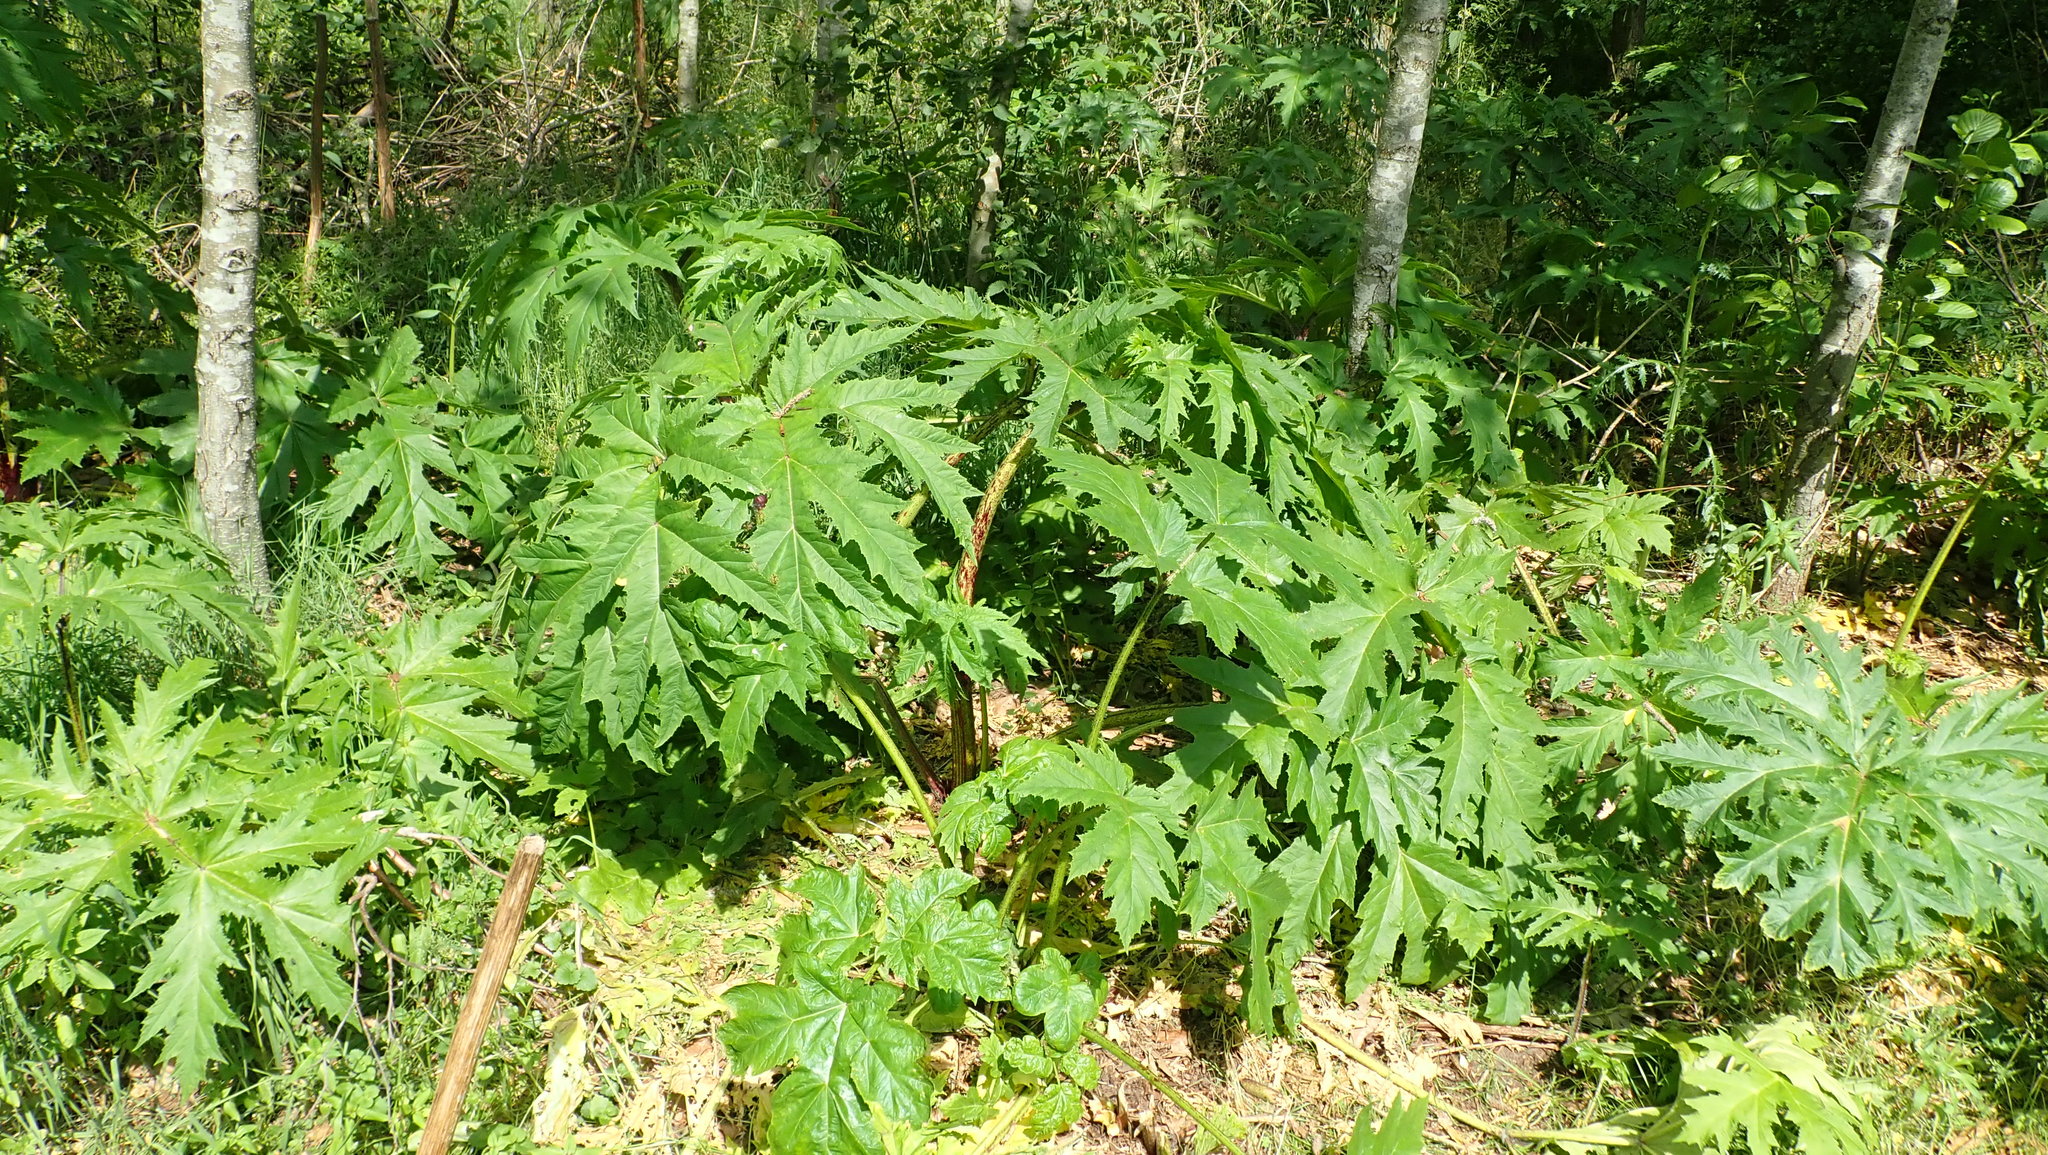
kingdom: Plantae
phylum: Tracheophyta
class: Magnoliopsida
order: Apiales
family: Apiaceae
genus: Heracleum
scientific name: Heracleum mantegazzianum
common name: Giant hogweed
